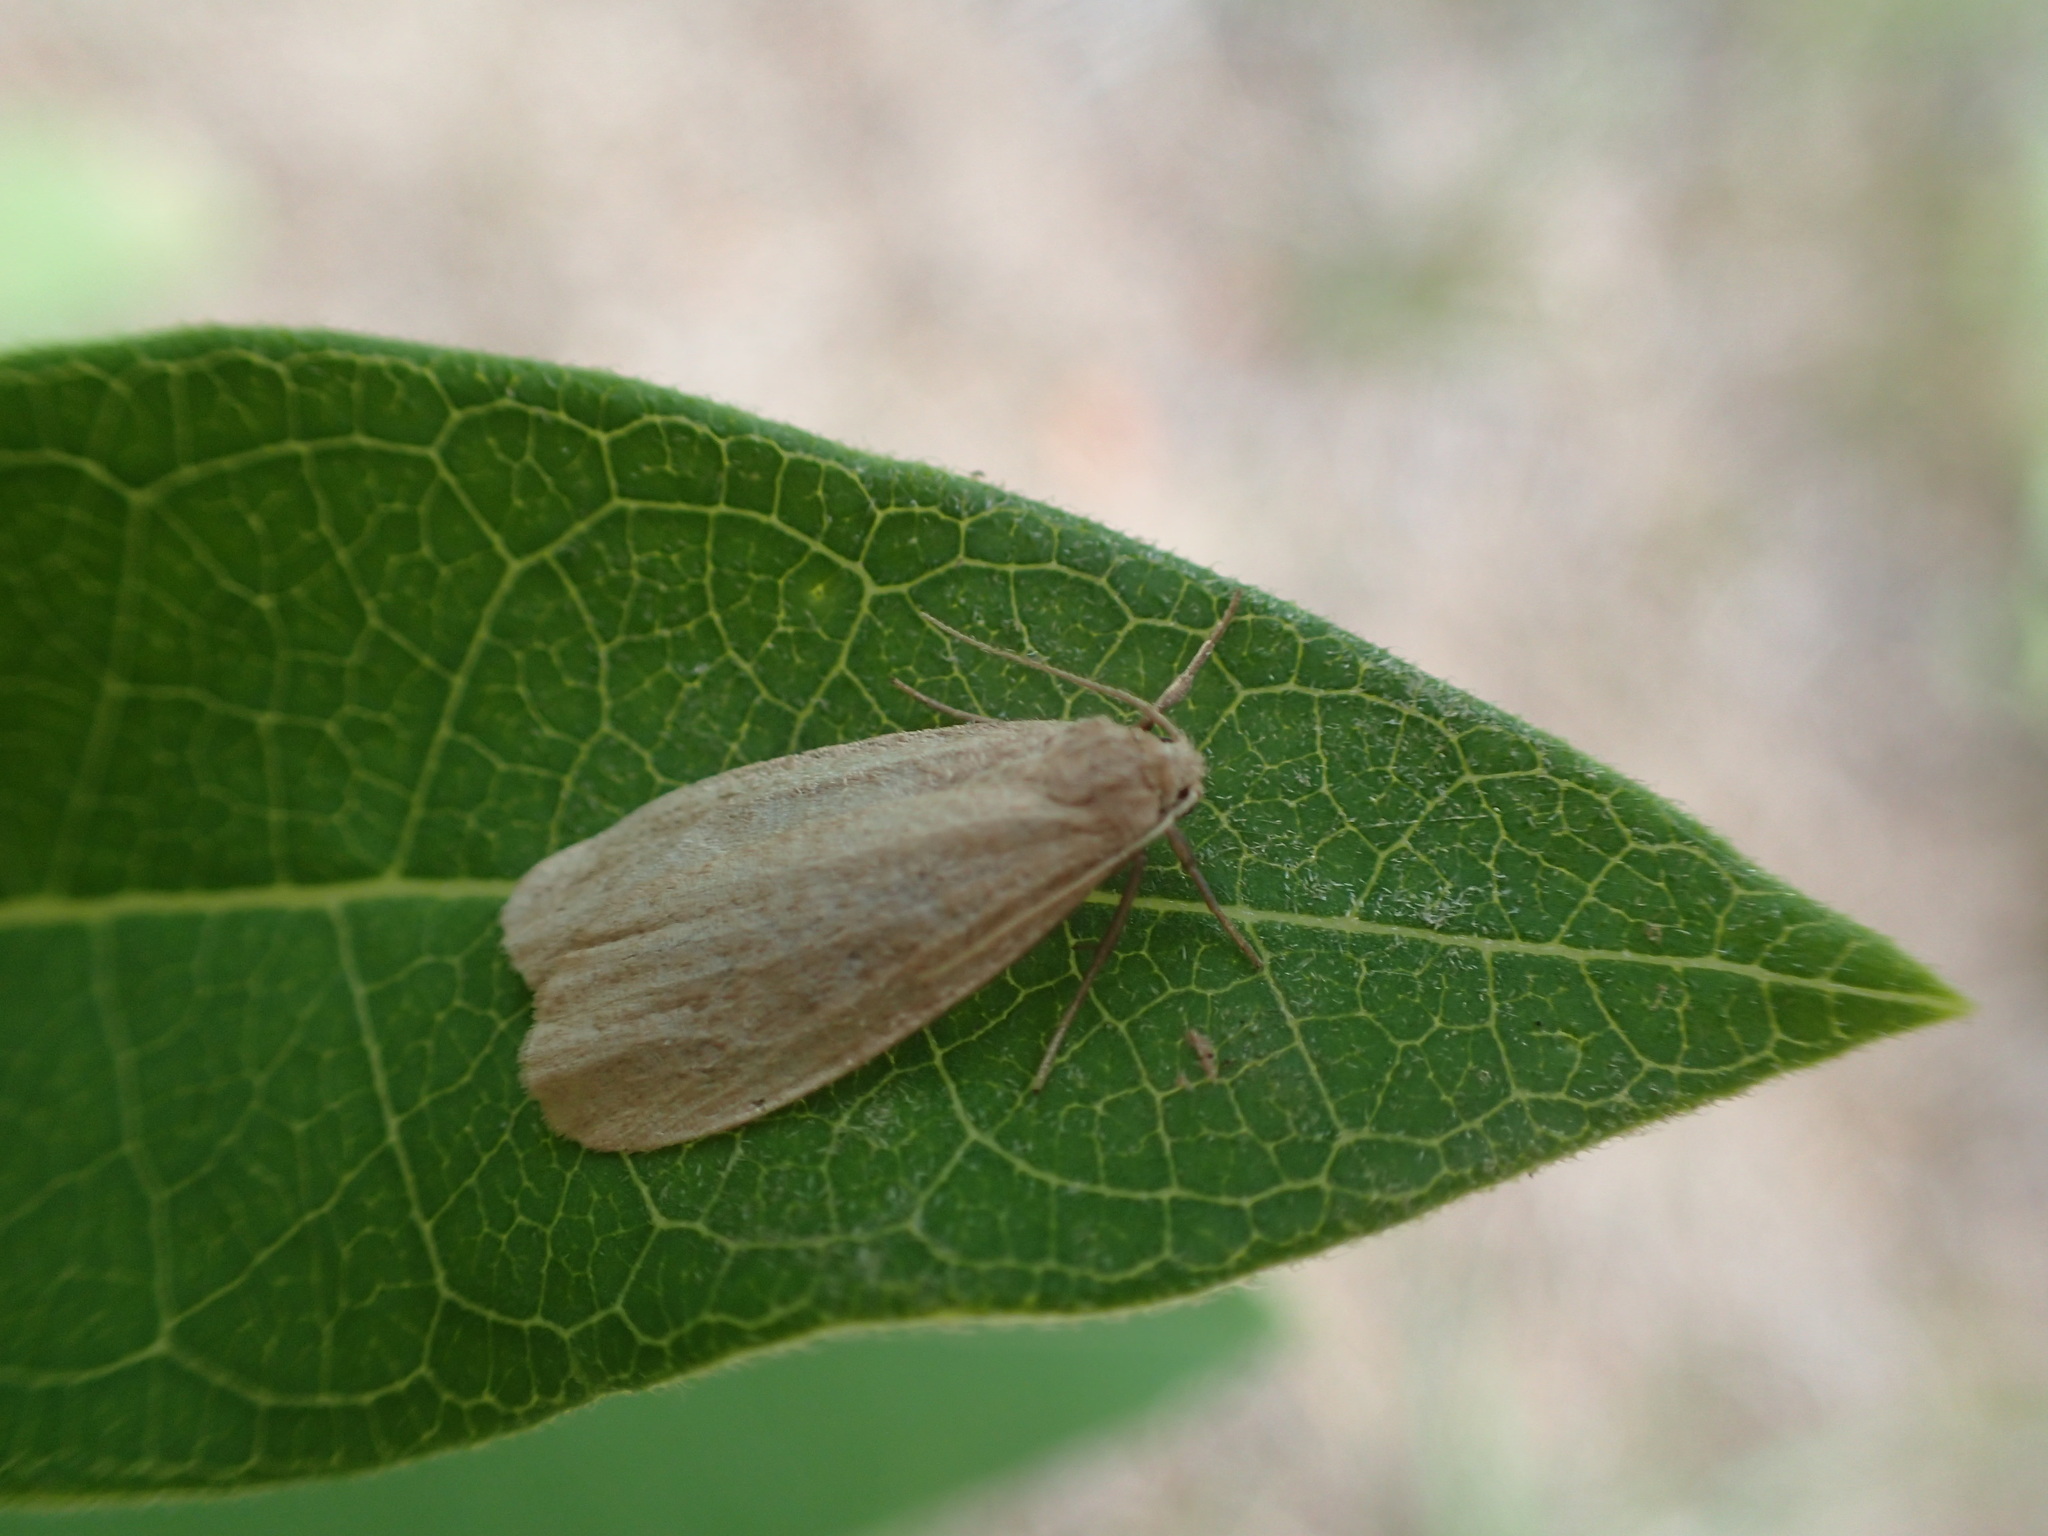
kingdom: Animalia
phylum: Arthropoda
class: Insecta
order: Lepidoptera
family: Erebidae
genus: Crambidia
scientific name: Crambidia pallida
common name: Pale lichen moth
